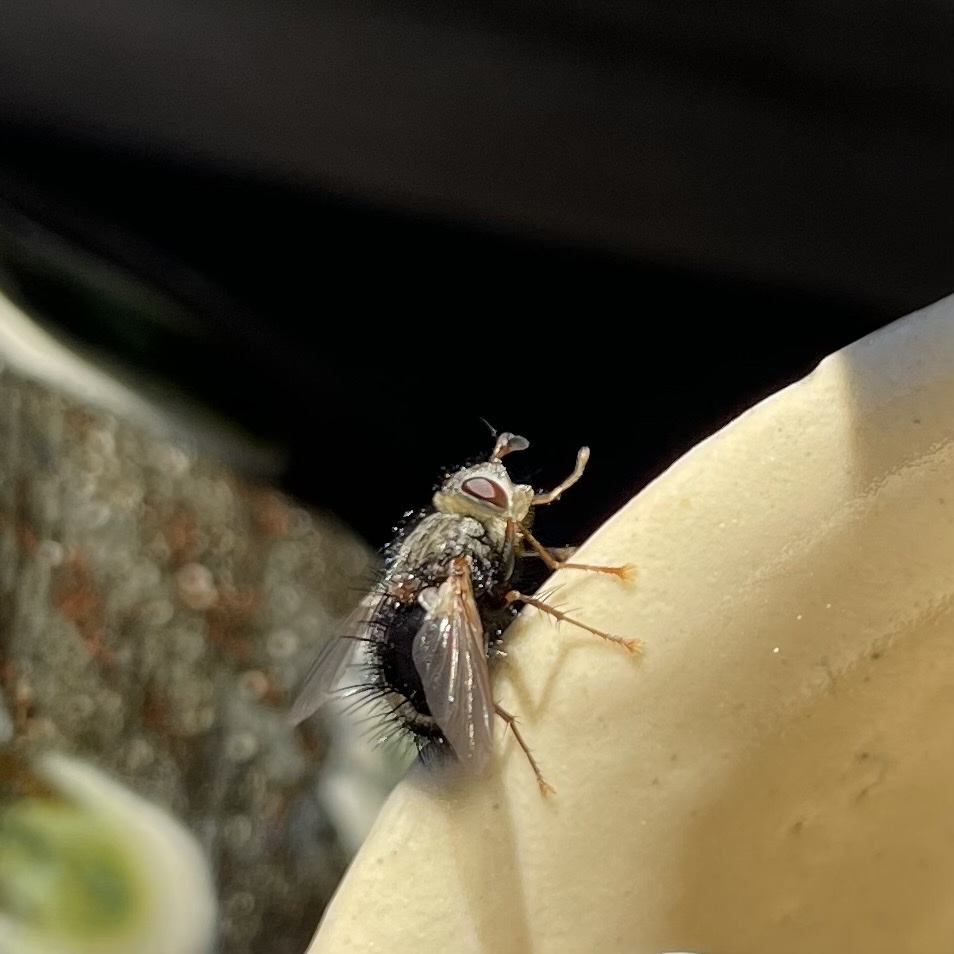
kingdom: Animalia
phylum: Arthropoda
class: Insecta
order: Diptera
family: Tachinidae
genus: Epalpus
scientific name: Epalpus signifer
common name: Early tachinid fly
